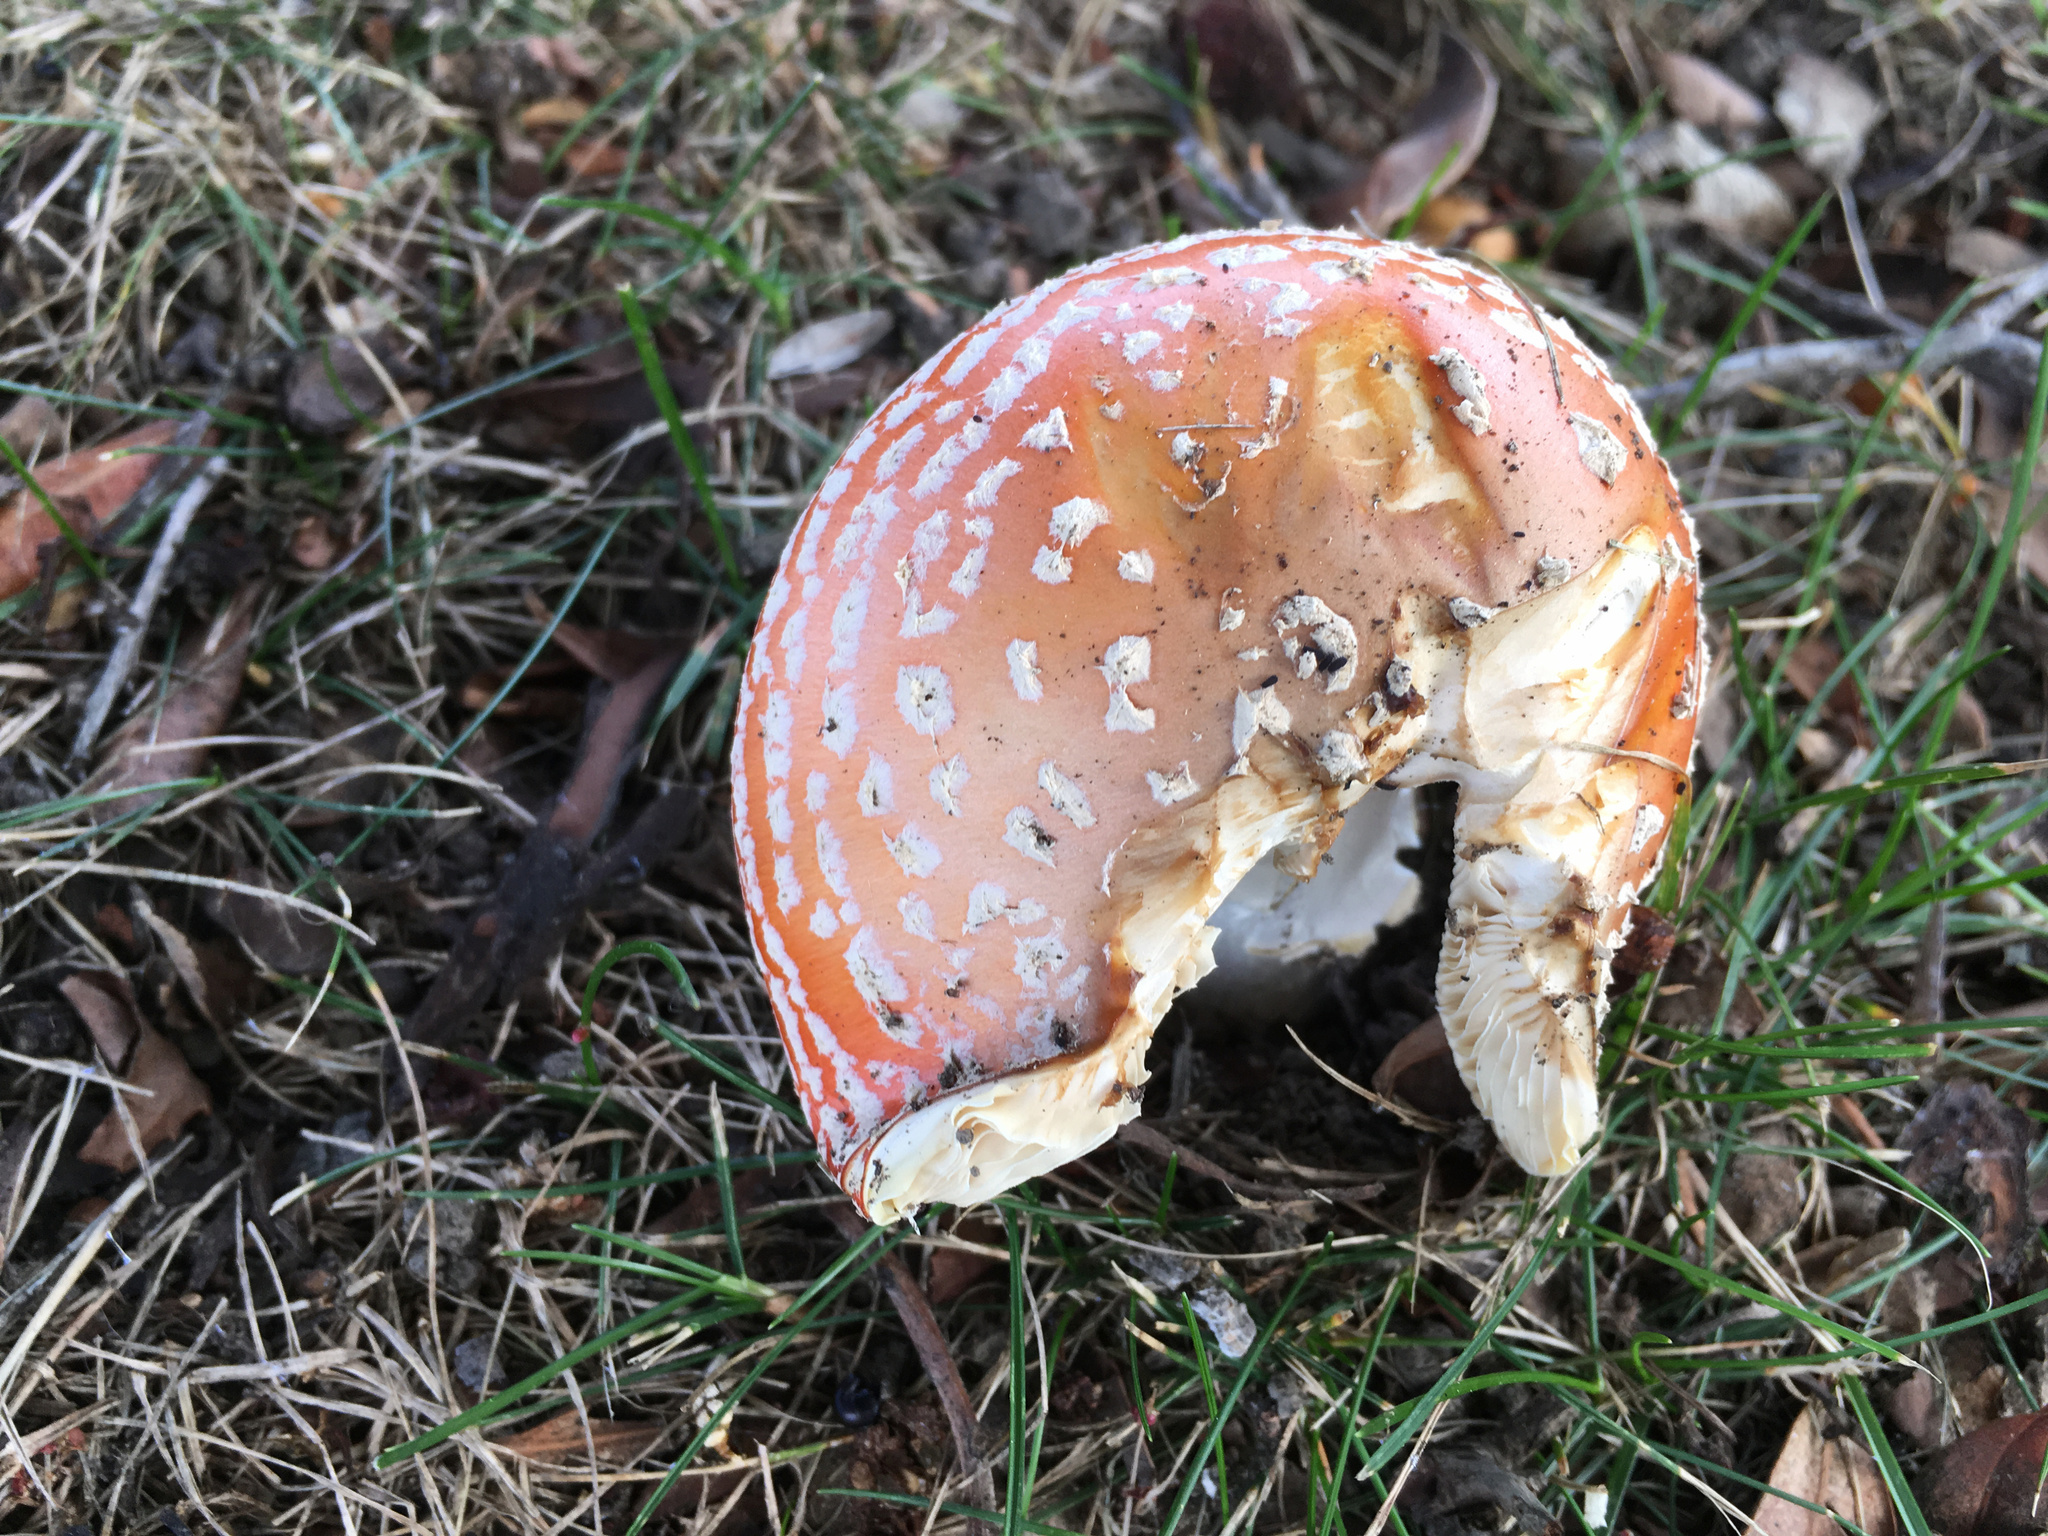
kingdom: Fungi
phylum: Basidiomycota
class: Agaricomycetes
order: Agaricales
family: Amanitaceae
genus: Amanita
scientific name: Amanita muscaria
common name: Fly agaric
